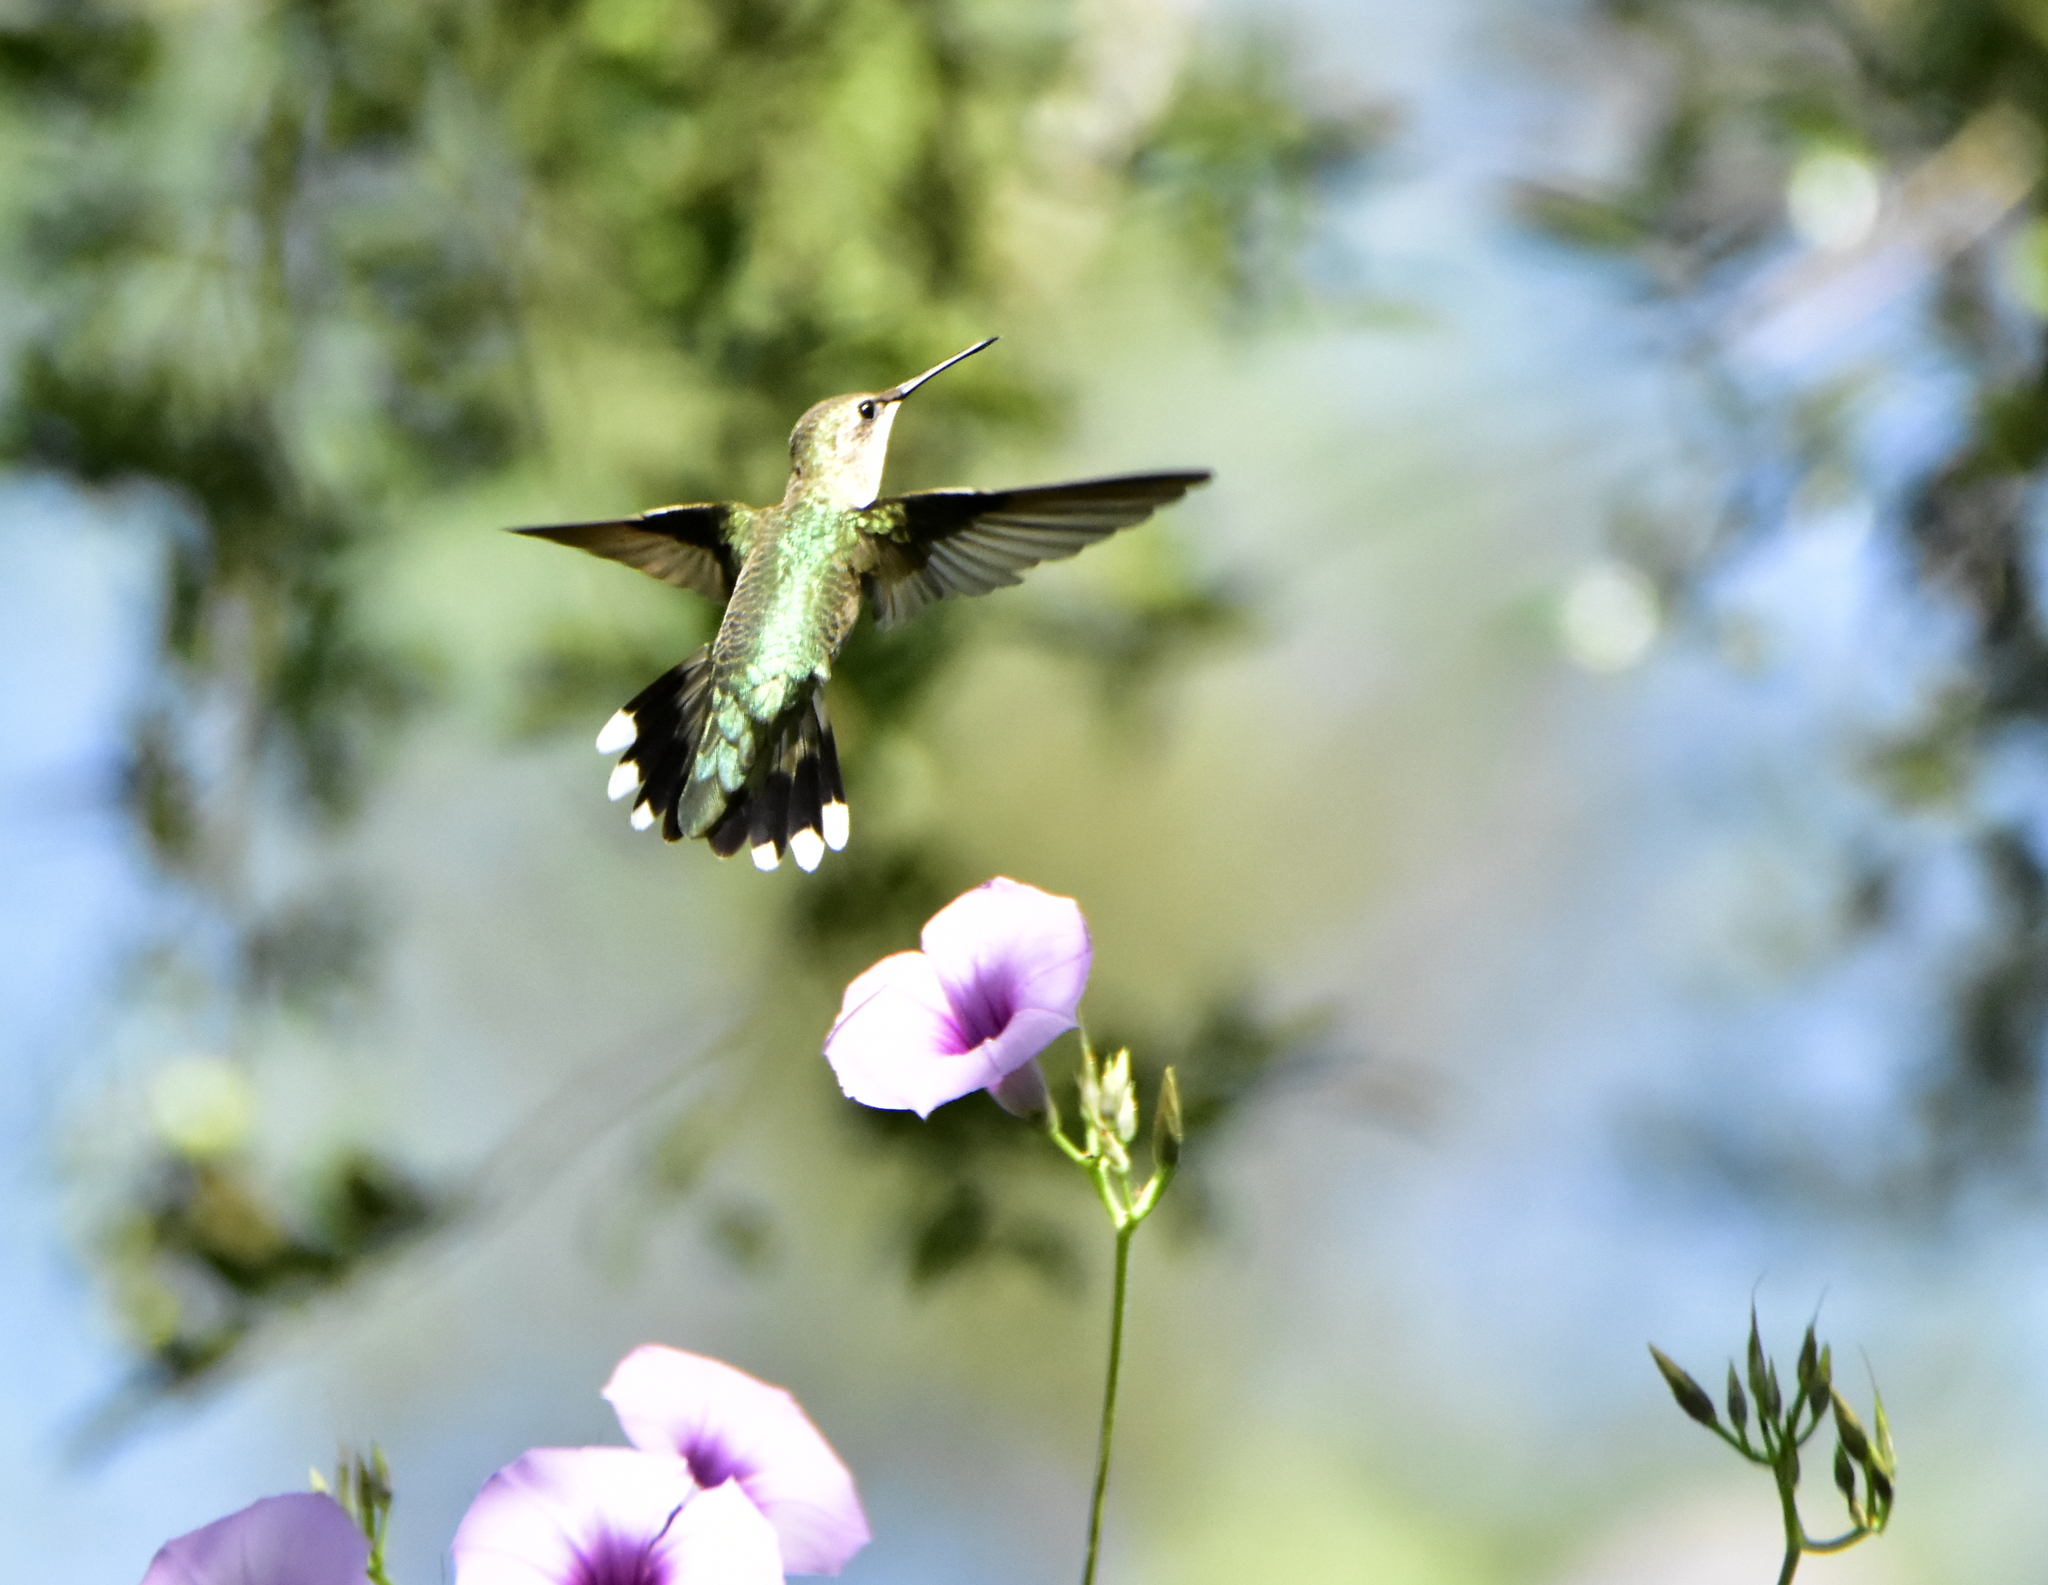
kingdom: Animalia
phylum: Chordata
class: Aves
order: Apodiformes
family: Trochilidae
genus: Archilochus
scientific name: Archilochus alexandri
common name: Black-chinned hummingbird
